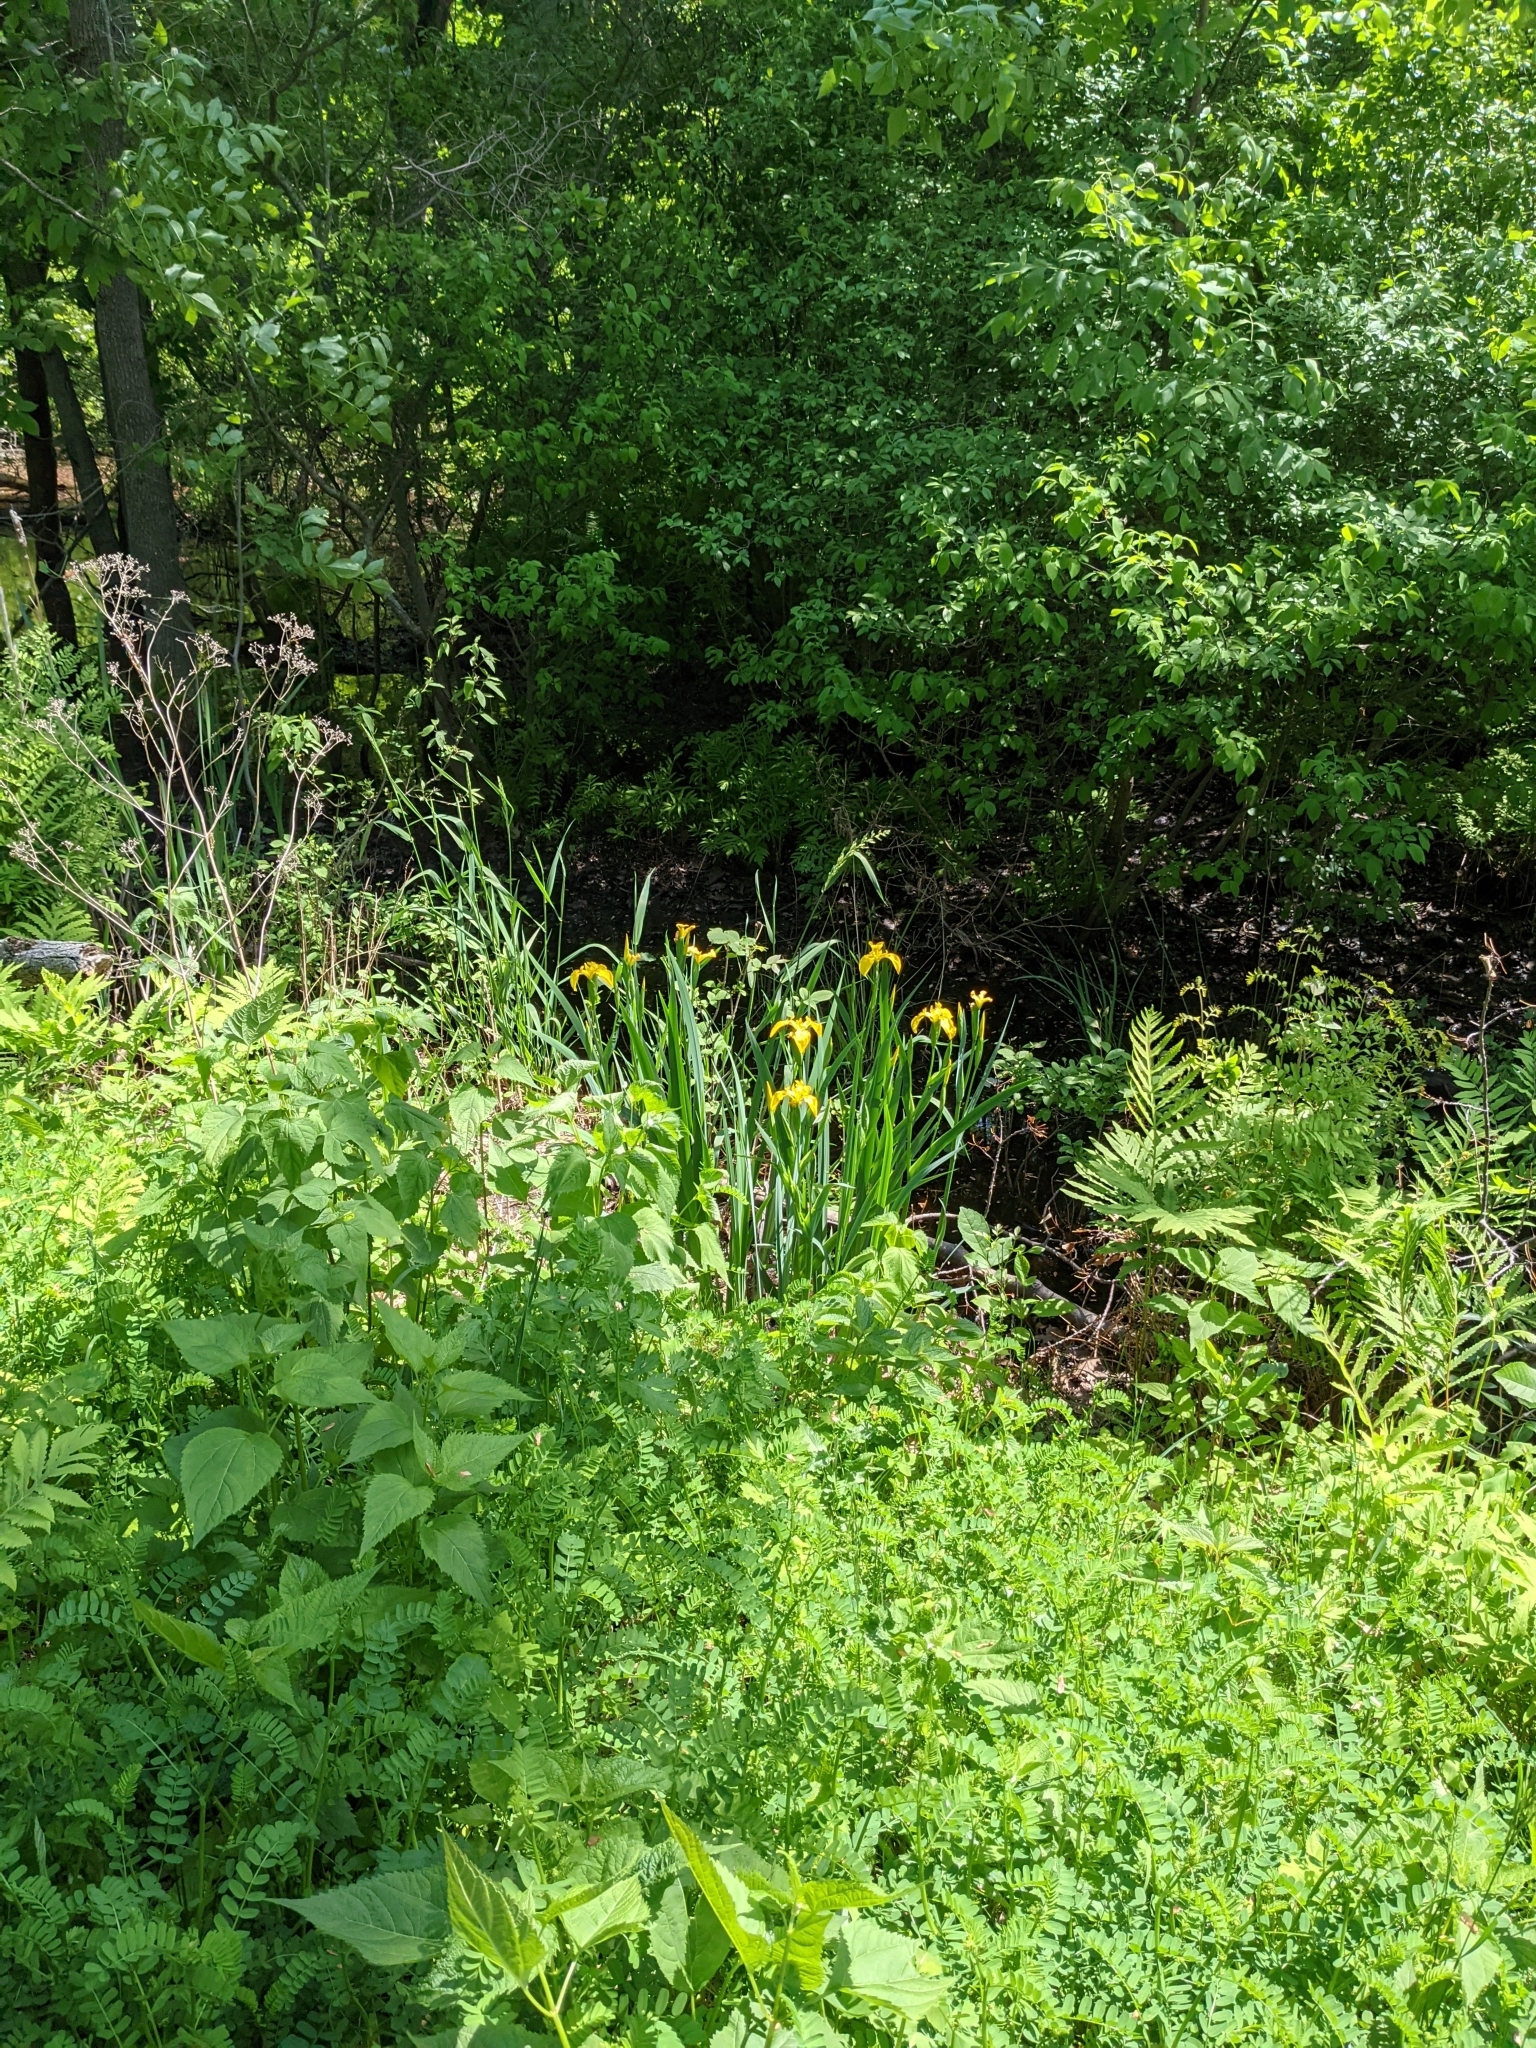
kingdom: Plantae
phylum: Tracheophyta
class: Liliopsida
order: Asparagales
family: Iridaceae
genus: Iris
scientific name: Iris pseudacorus
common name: Yellow flag
